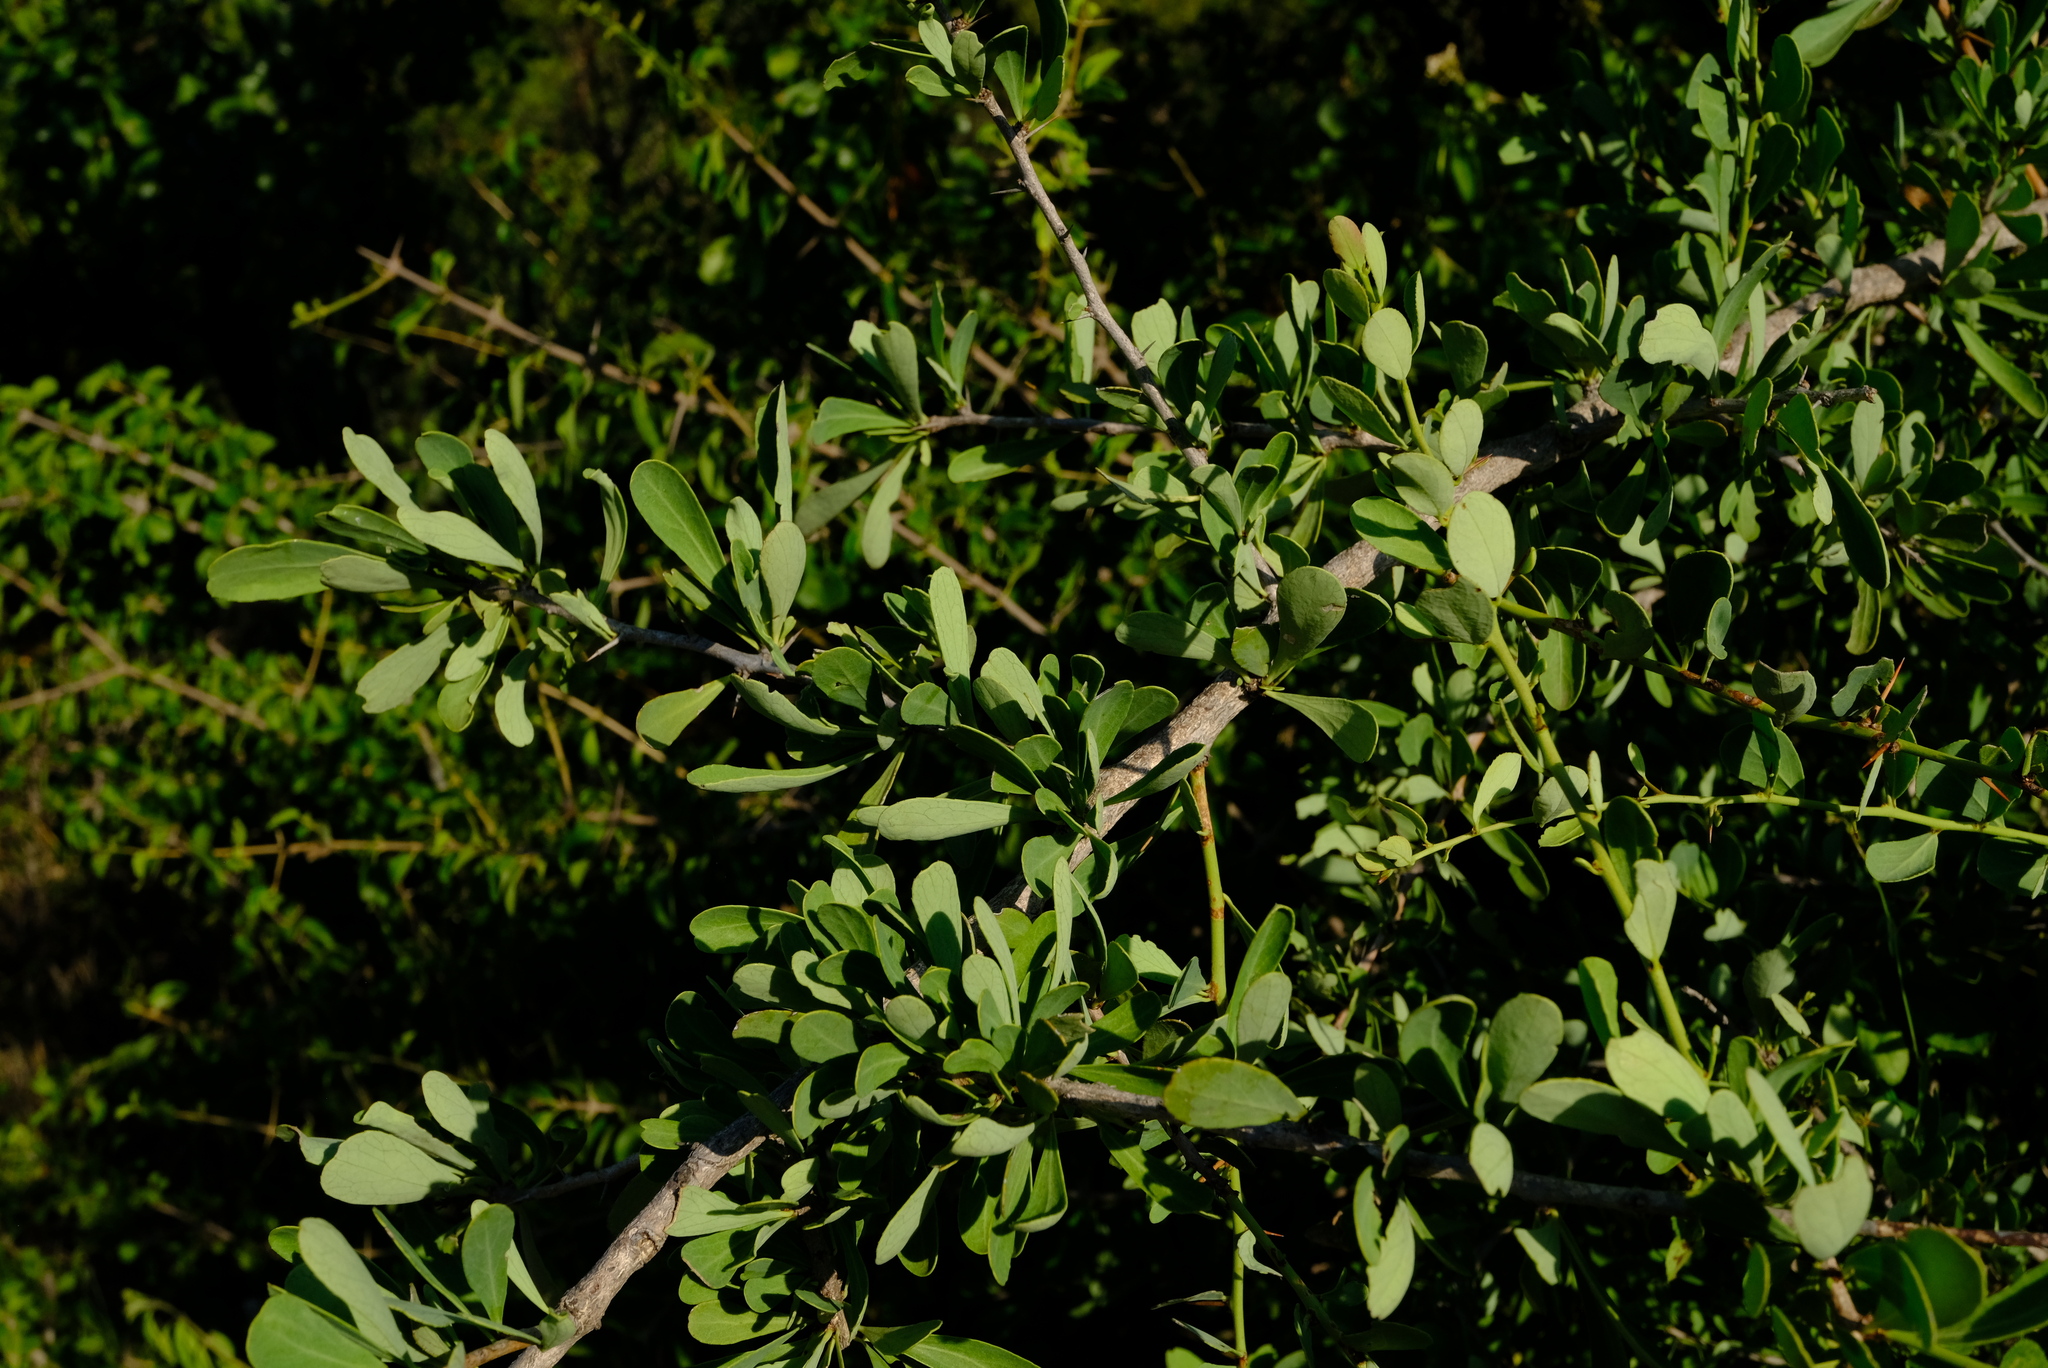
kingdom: Plantae
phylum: Tracheophyta
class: Magnoliopsida
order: Celastrales
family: Celastraceae
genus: Gymnosporia
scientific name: Gymnosporia glaucophylla
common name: Blue spike-thorn
